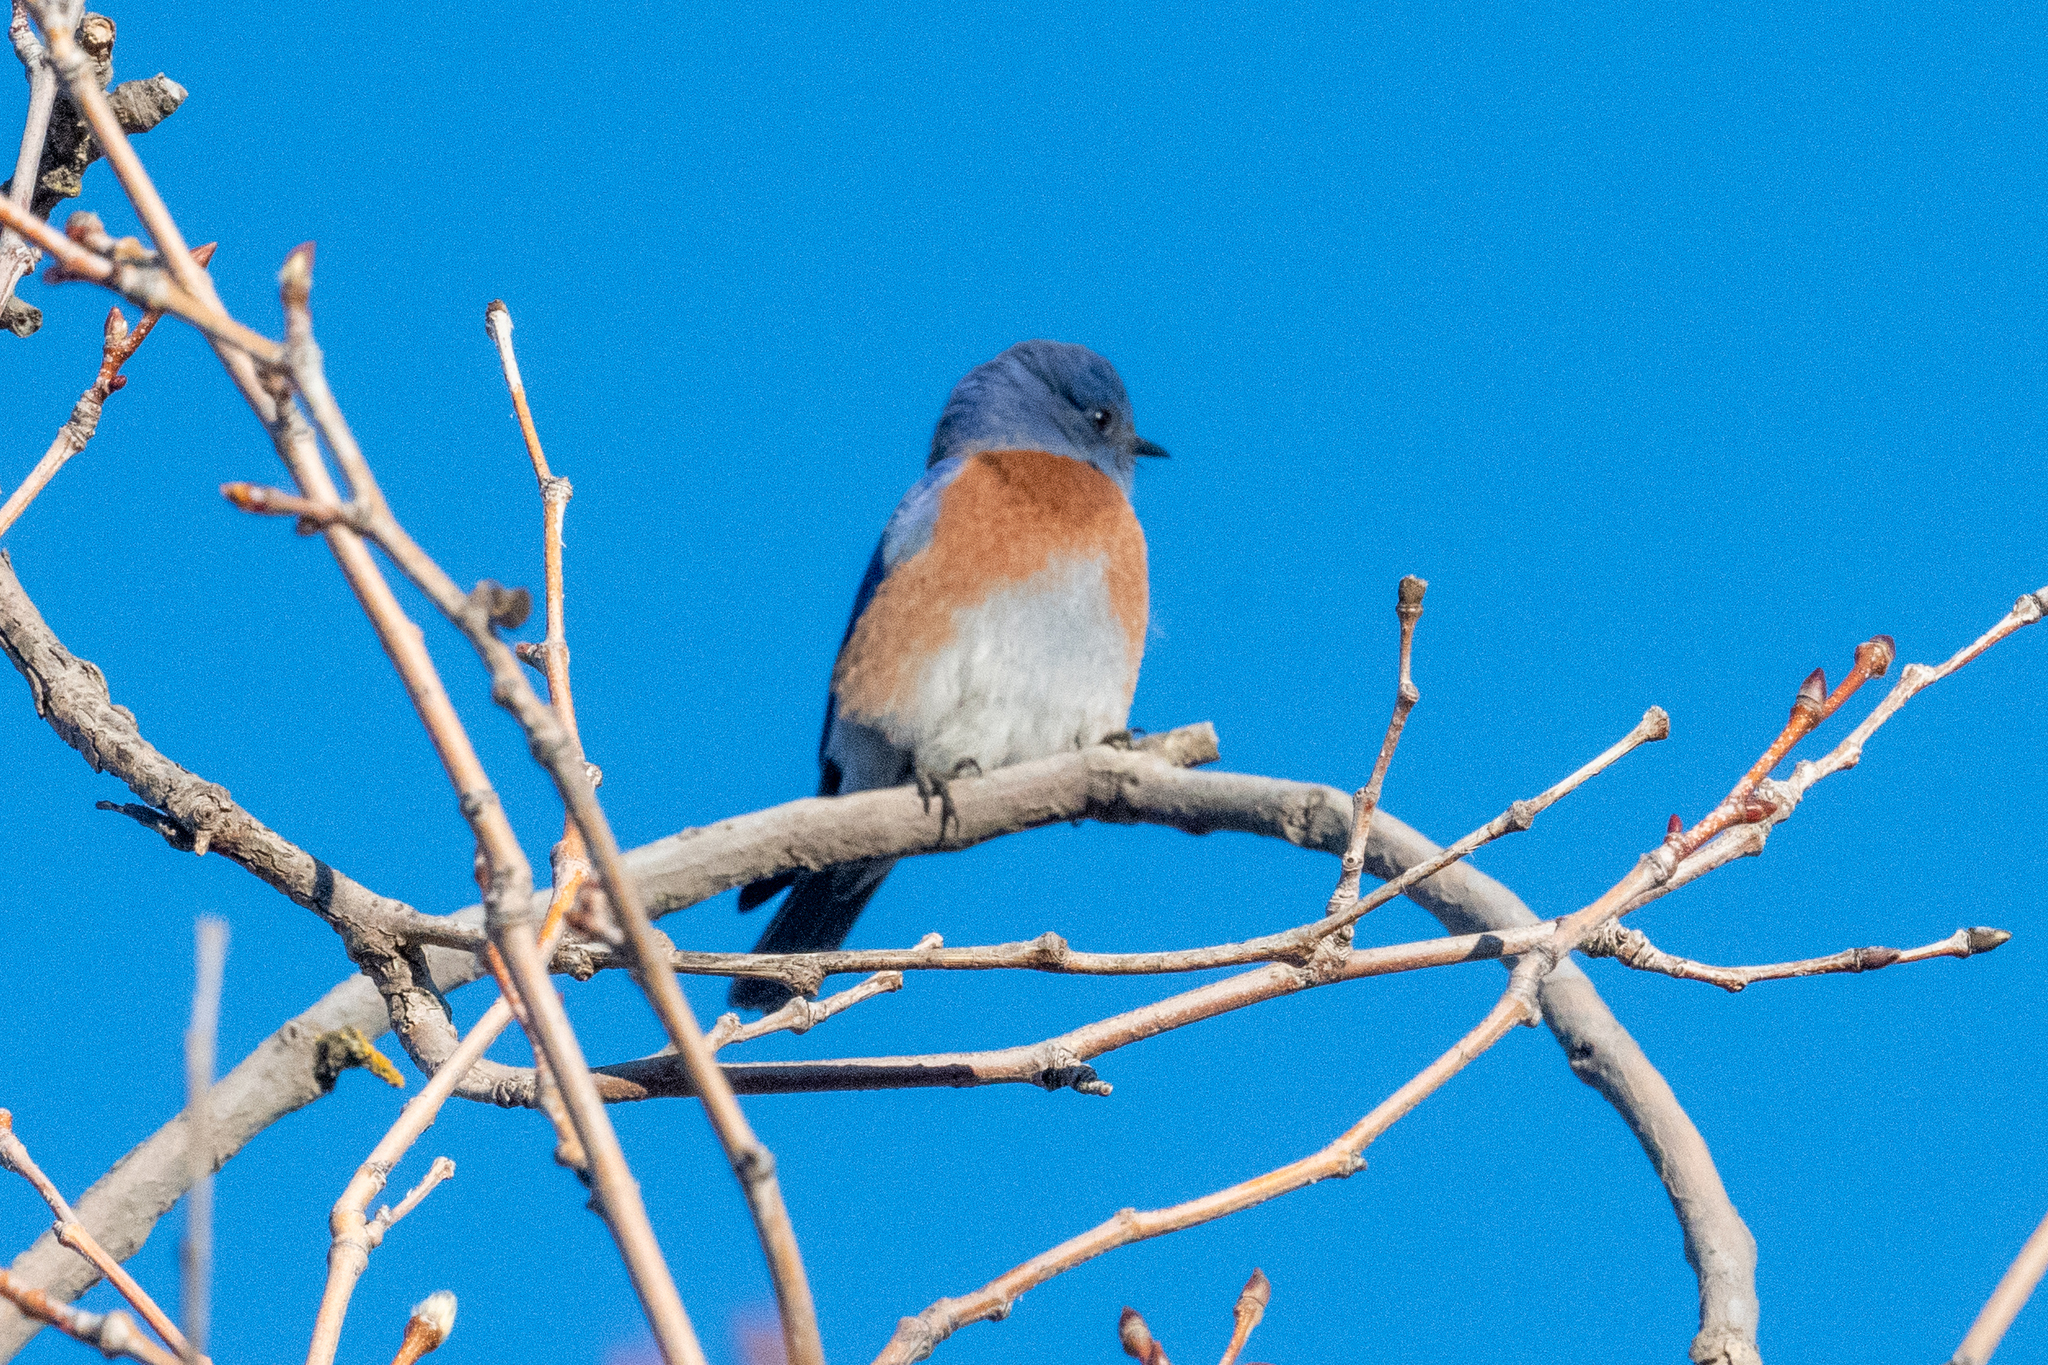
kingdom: Animalia
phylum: Chordata
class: Aves
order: Passeriformes
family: Turdidae
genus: Sialia
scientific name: Sialia mexicana
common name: Western bluebird
